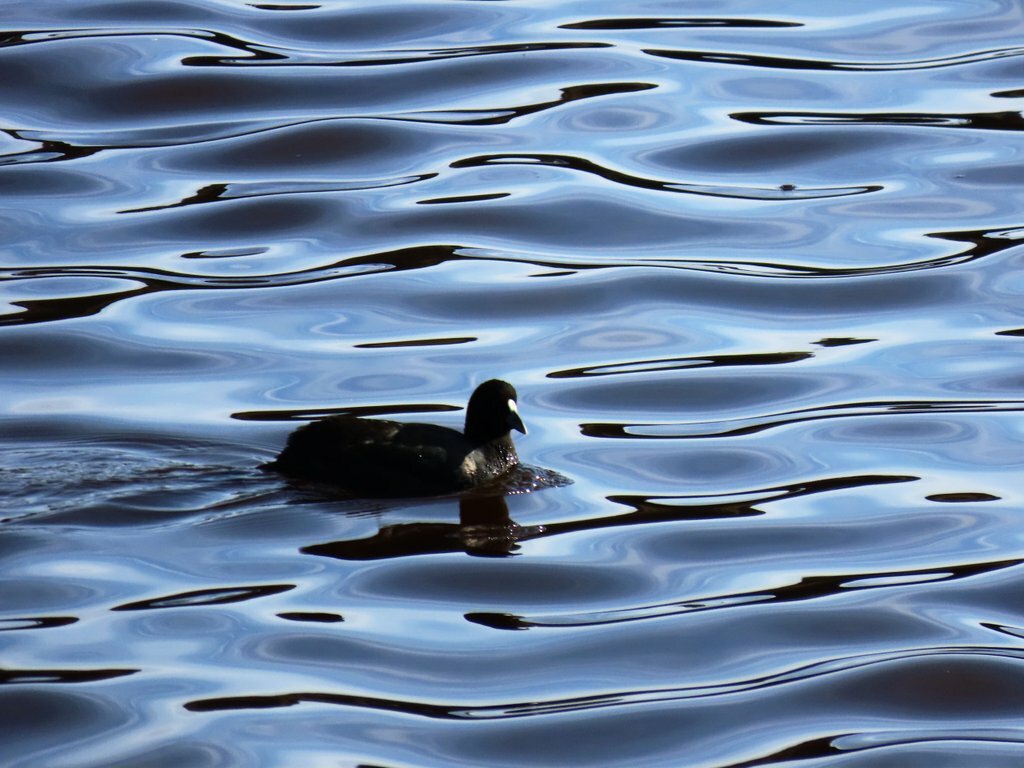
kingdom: Animalia
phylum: Chordata
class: Aves
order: Gruiformes
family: Rallidae
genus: Fulica
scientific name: Fulica atra
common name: Eurasian coot
